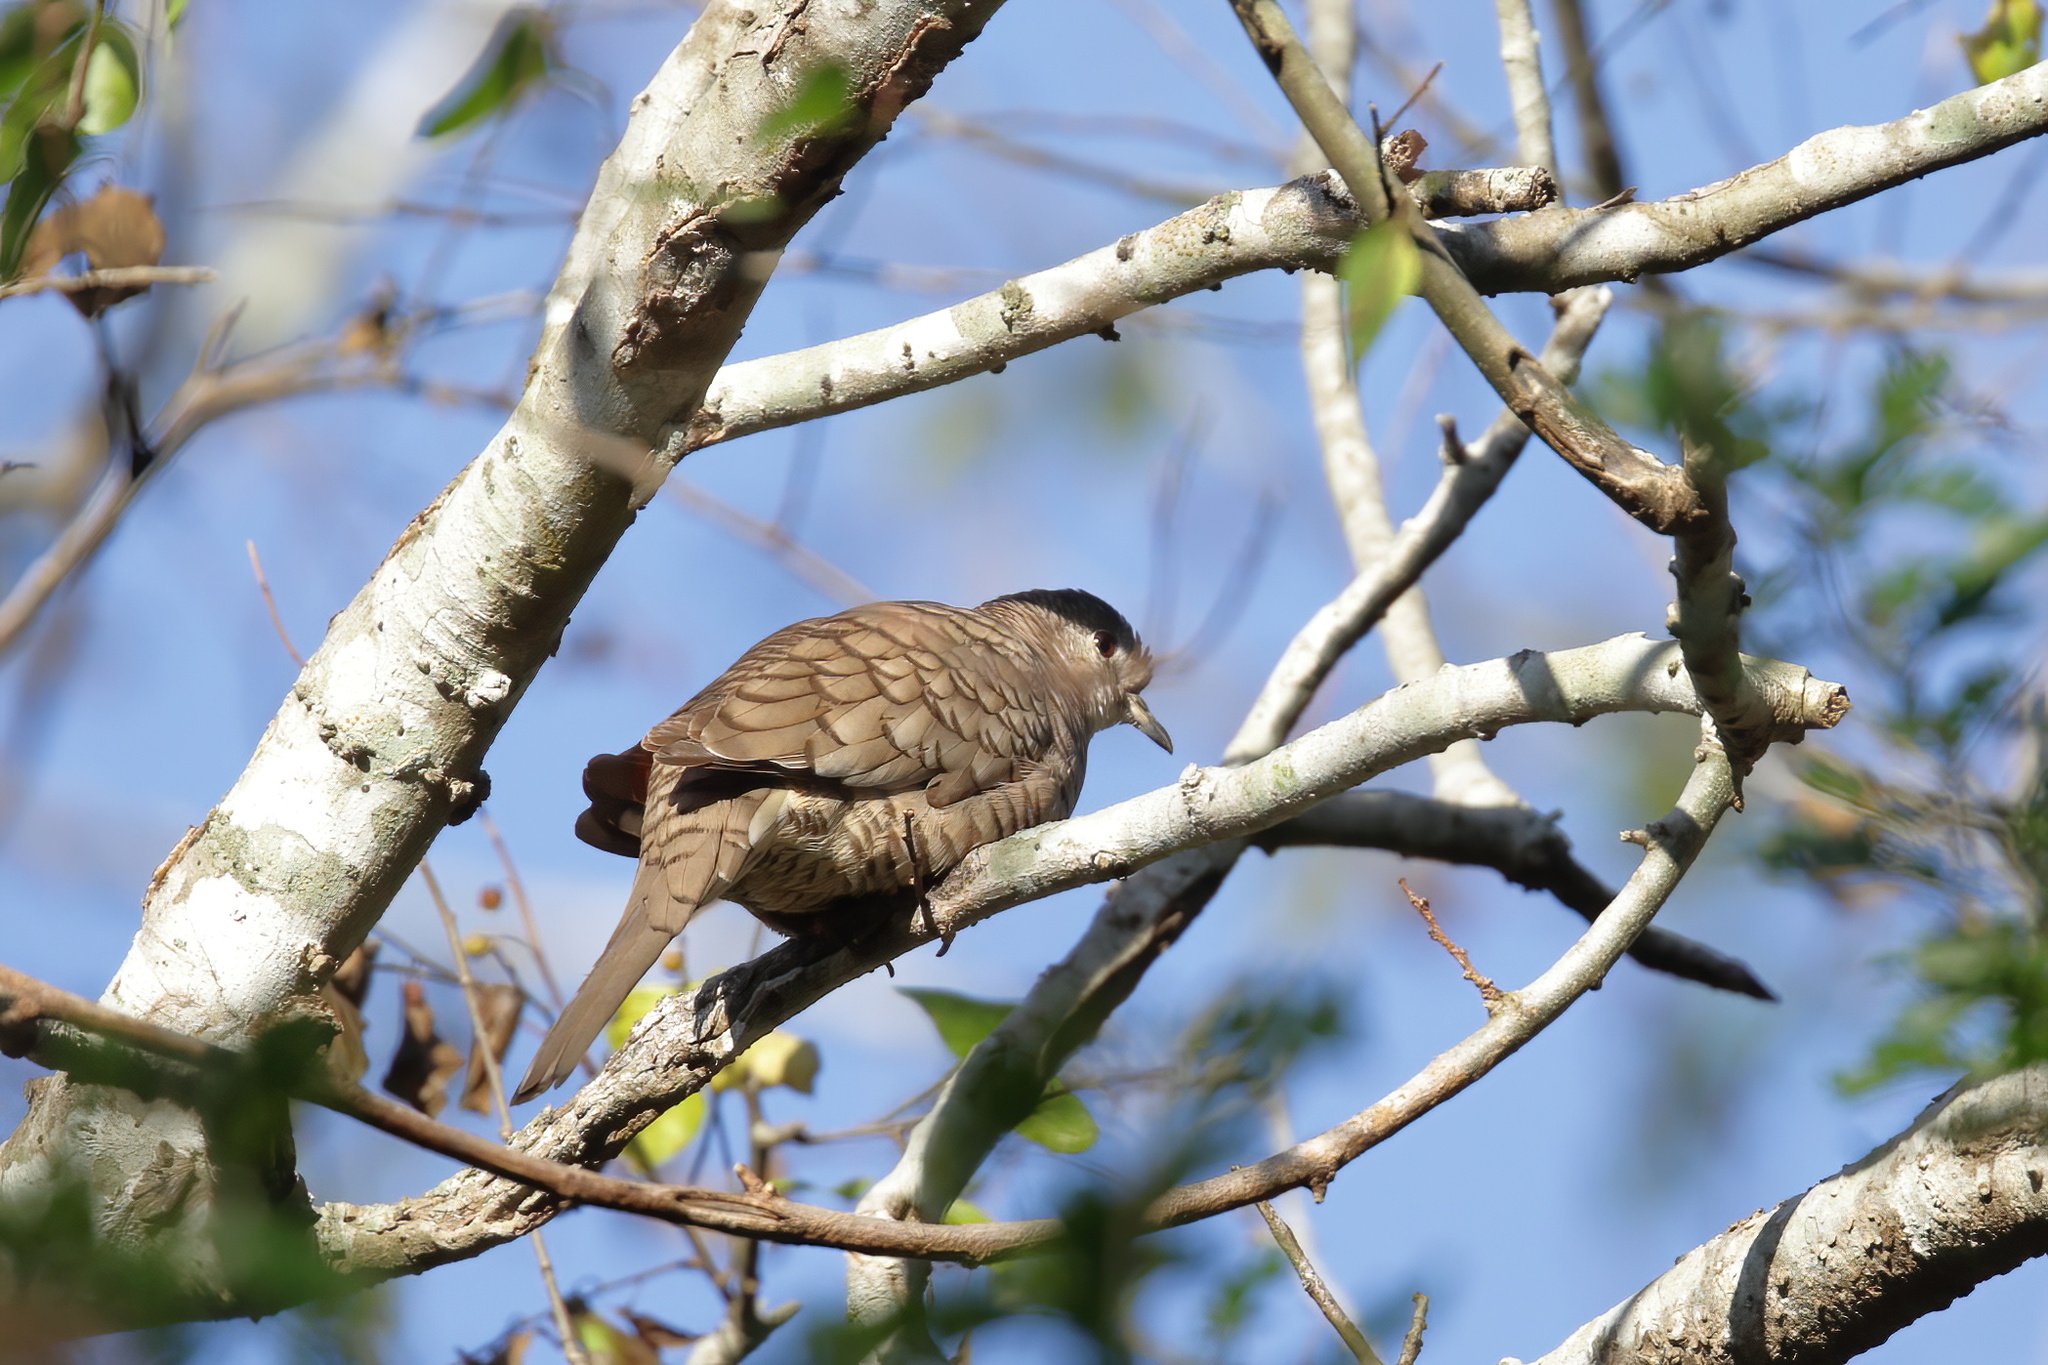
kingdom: Animalia
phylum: Chordata
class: Aves
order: Columbiformes
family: Columbidae
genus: Columbina
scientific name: Columbina inca
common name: Inca dove
